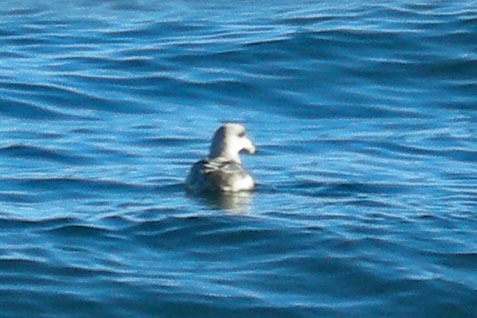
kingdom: Animalia
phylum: Chordata
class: Aves
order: Procellariiformes
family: Procellariidae
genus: Fulmarus
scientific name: Fulmarus glacialis
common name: Northern fulmar
